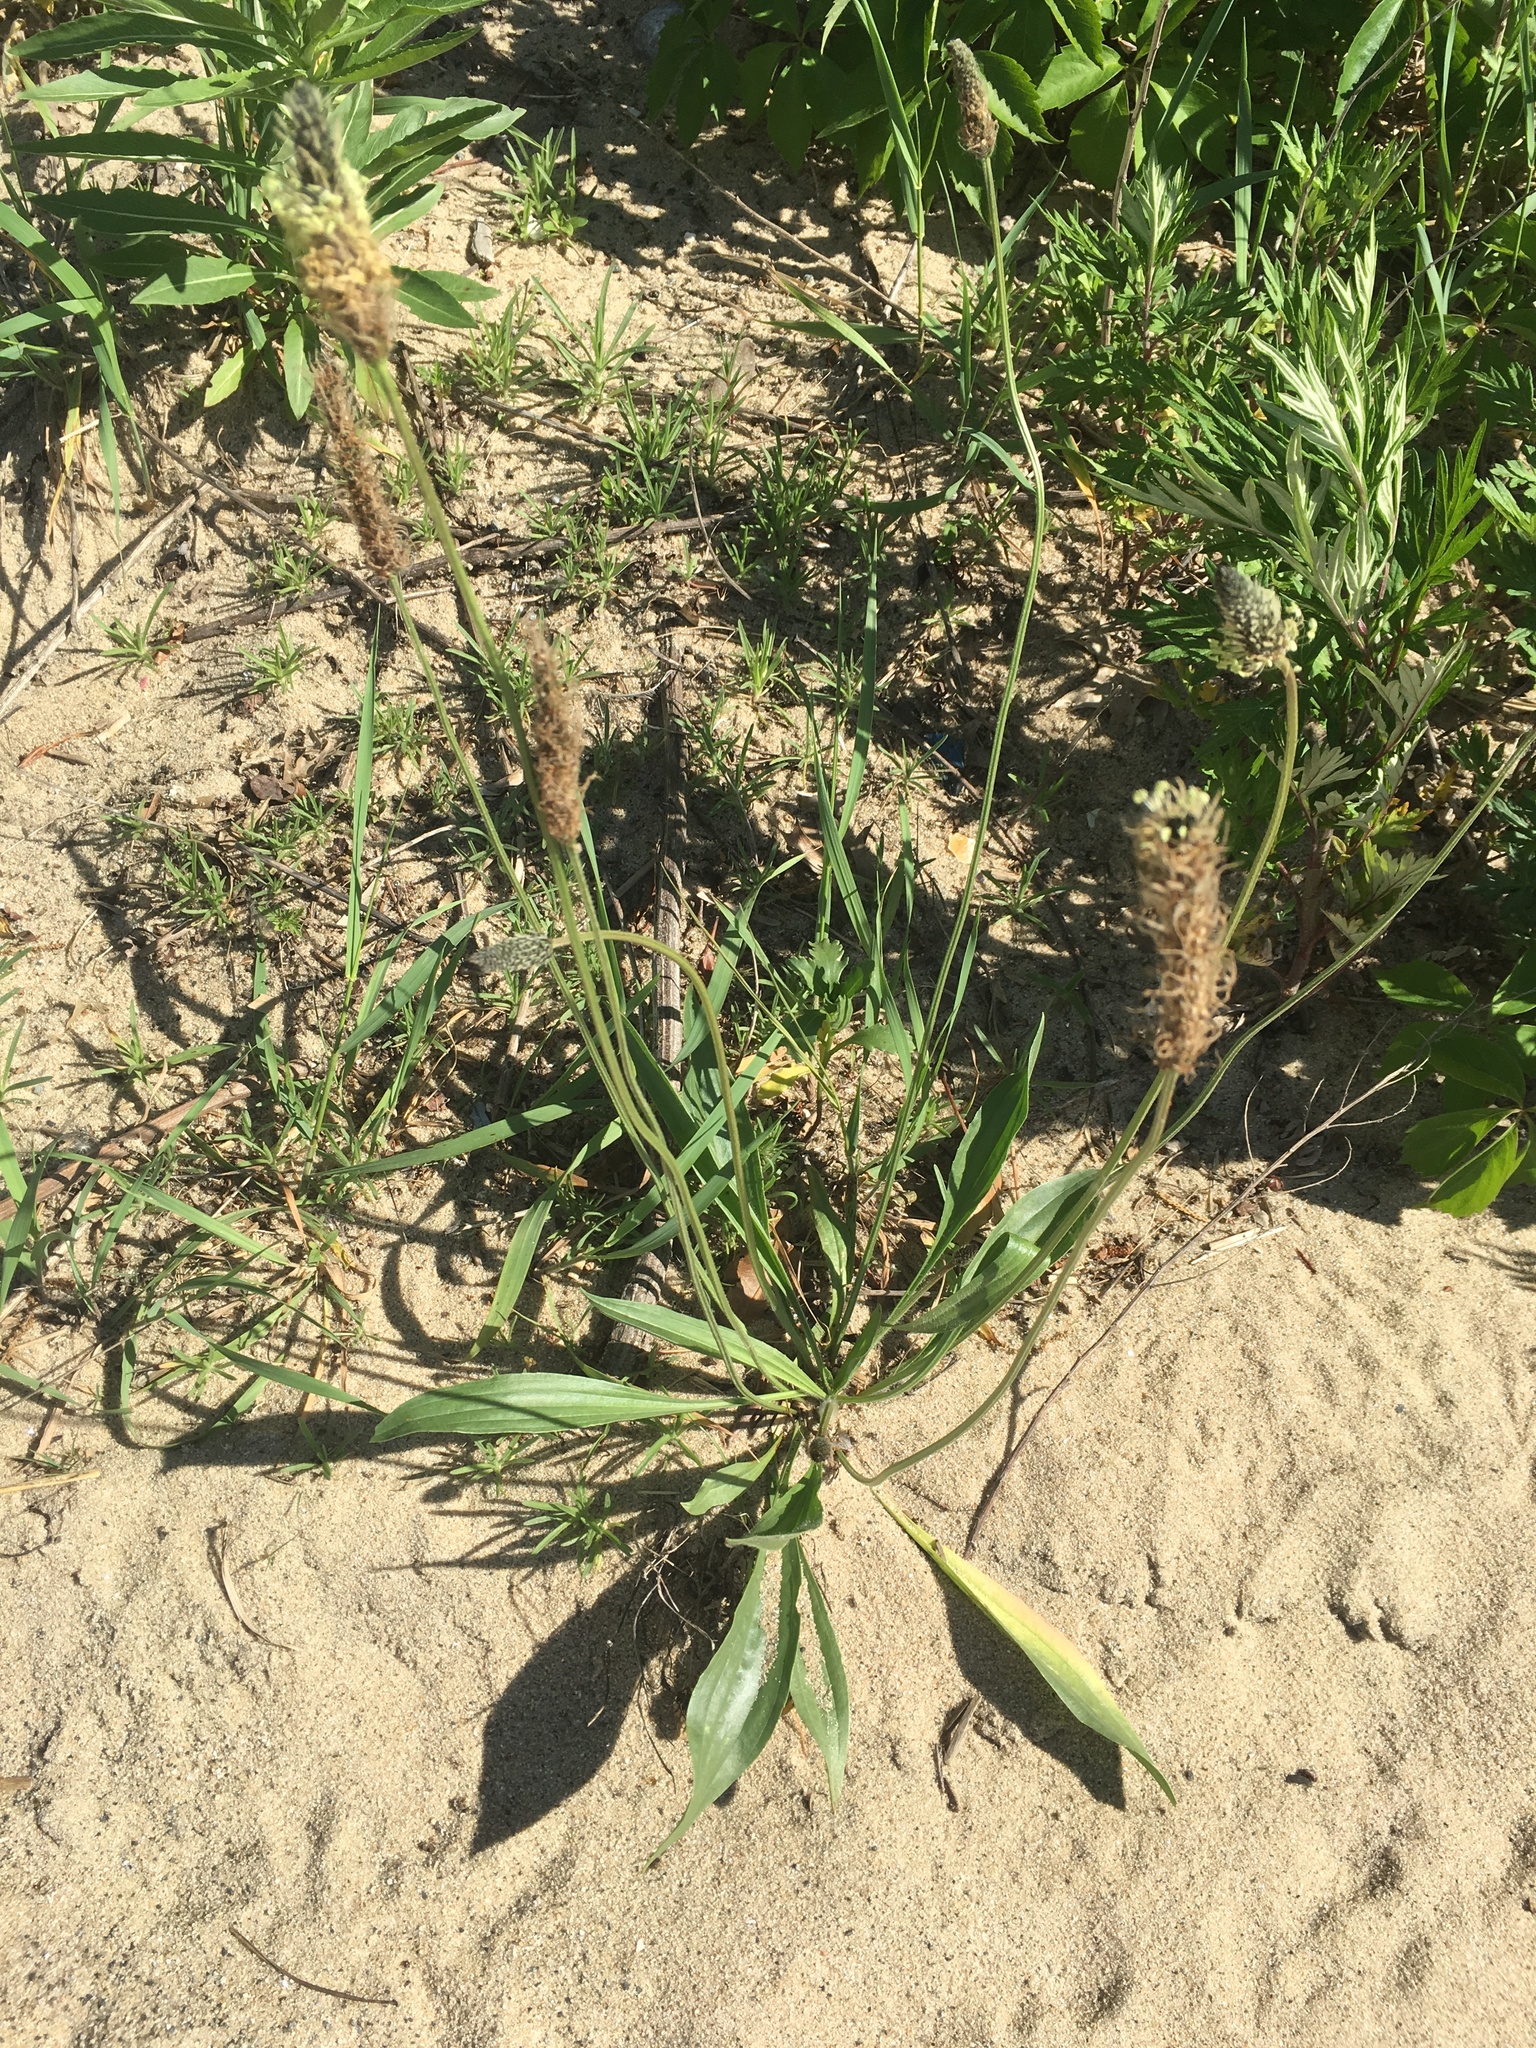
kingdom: Plantae
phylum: Tracheophyta
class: Magnoliopsida
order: Lamiales
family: Plantaginaceae
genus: Plantago
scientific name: Plantago lanceolata
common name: Ribwort plantain
